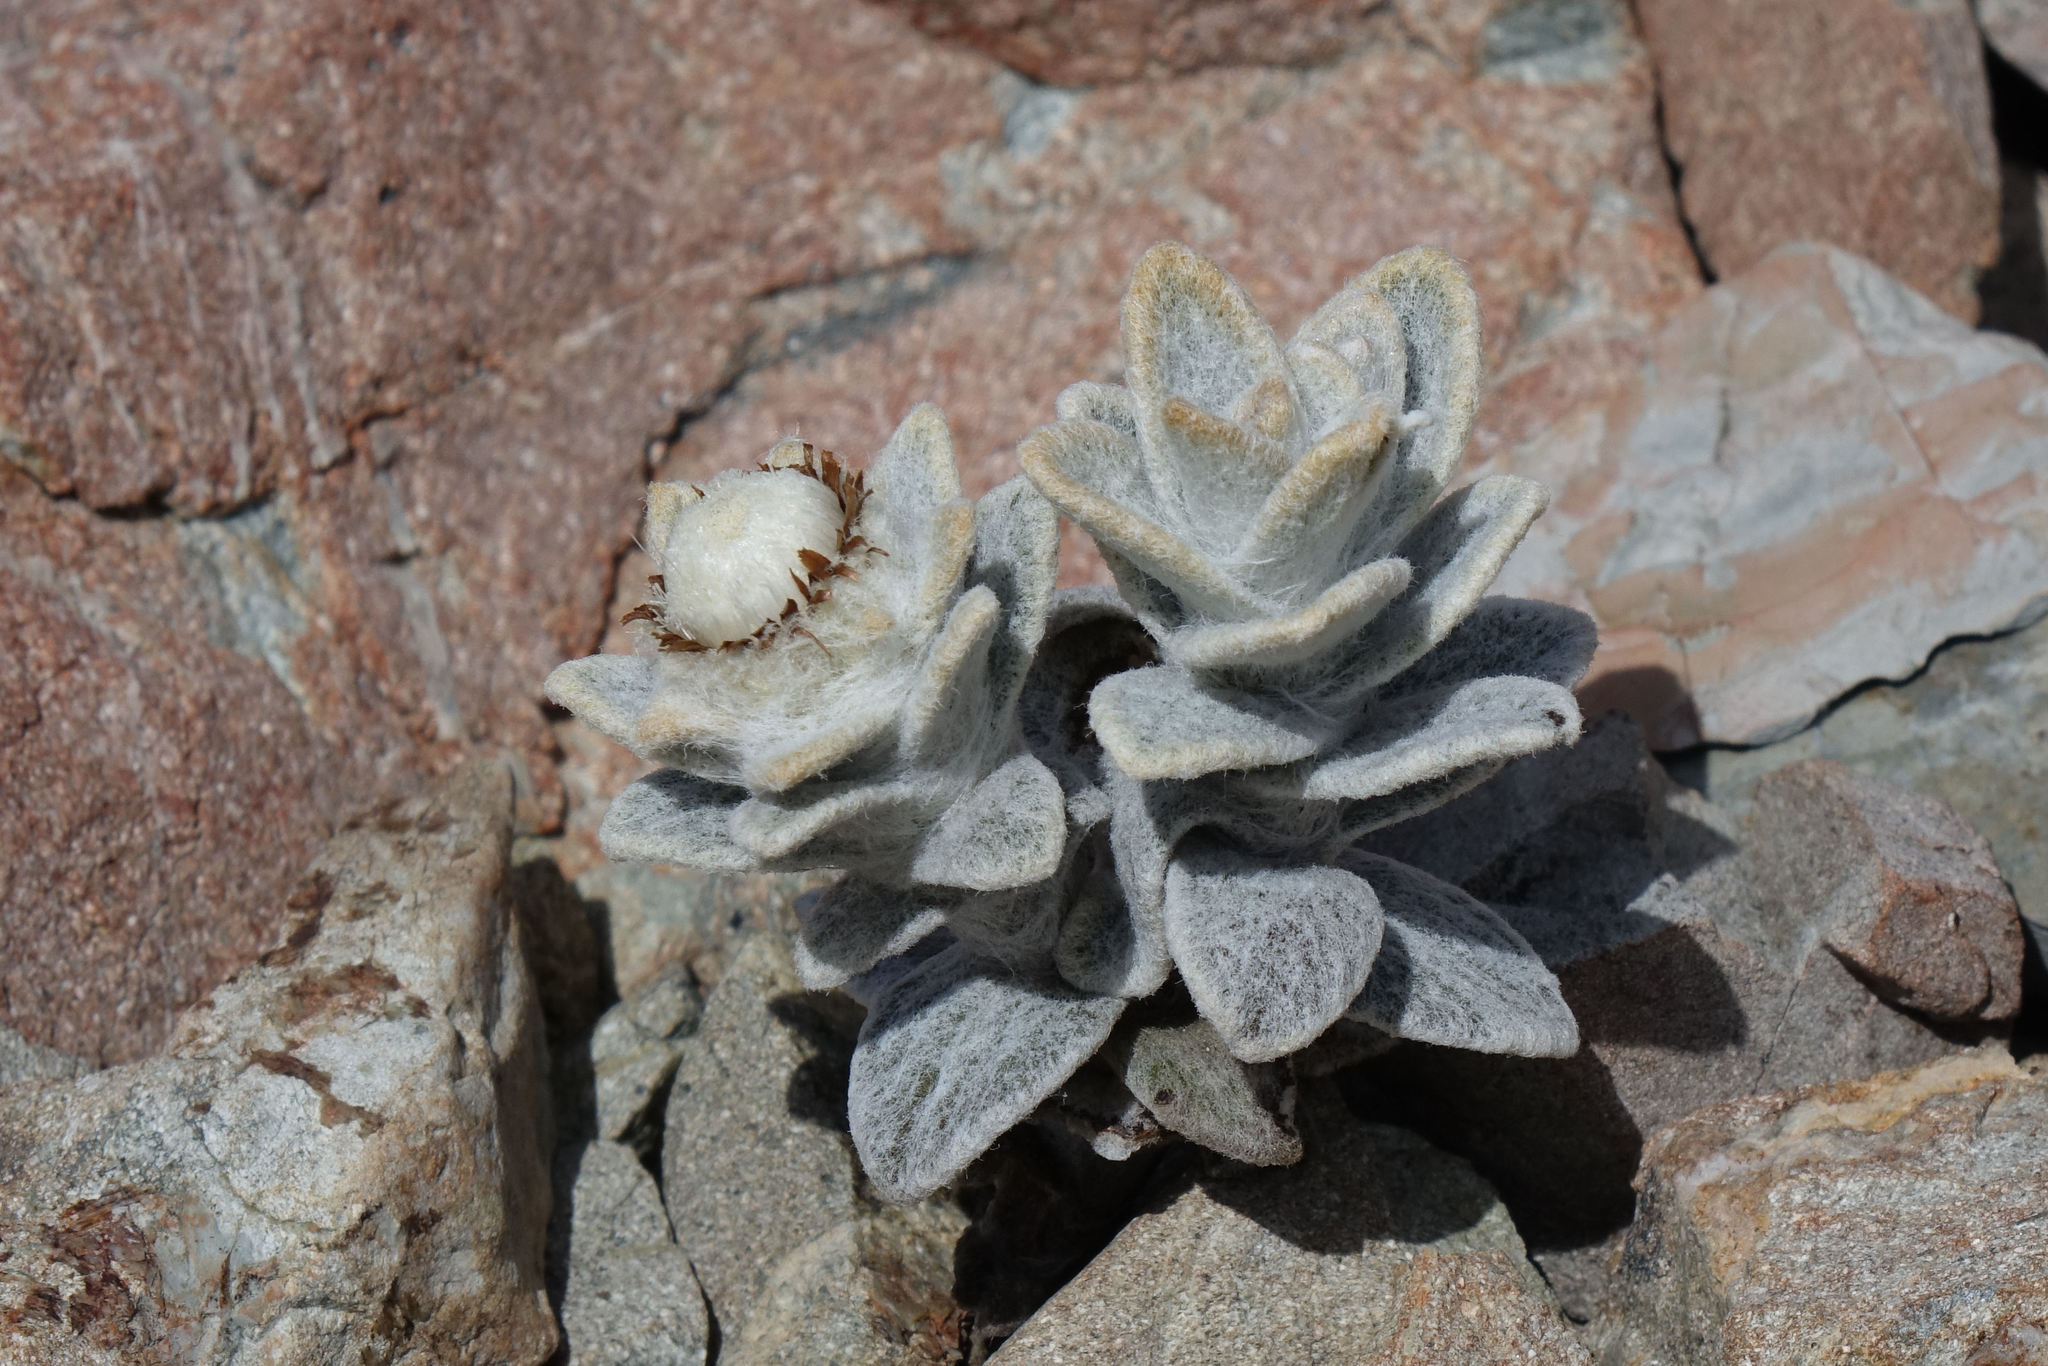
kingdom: Plantae
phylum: Tracheophyta
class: Magnoliopsida
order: Asterales
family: Asteraceae
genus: Haastia
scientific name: Haastia sinclairii
